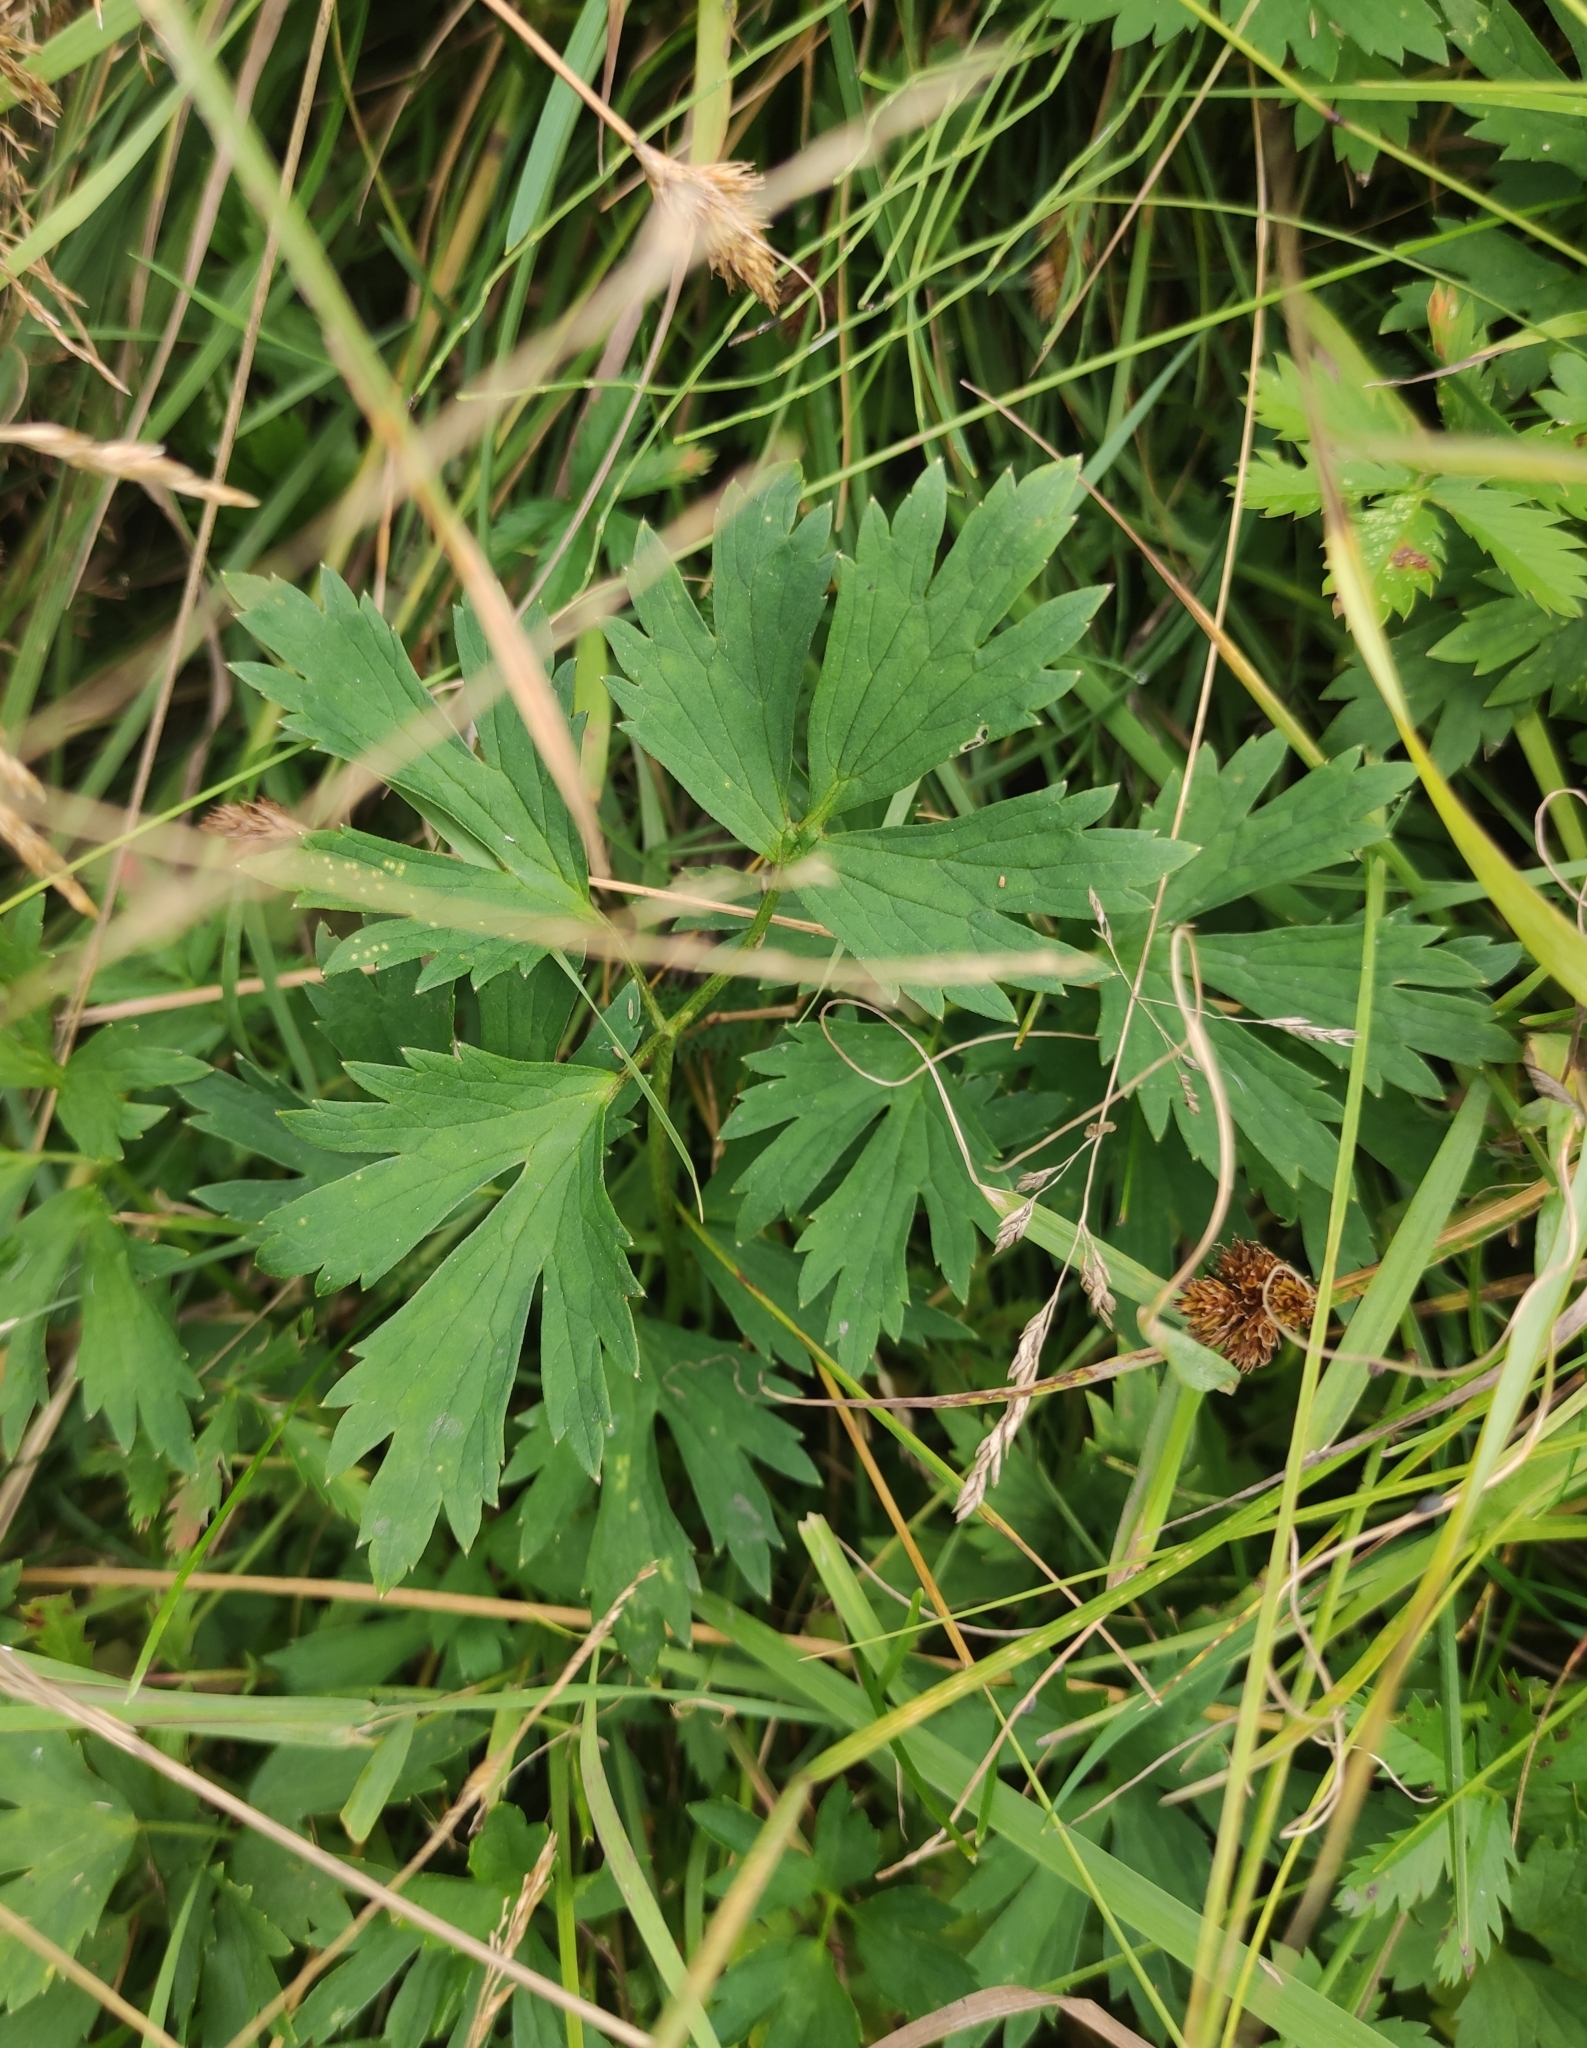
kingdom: Plantae
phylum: Tracheophyta
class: Magnoliopsida
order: Ranunculales
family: Ranunculaceae
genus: Ranunculus
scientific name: Ranunculus repens
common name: Creeping buttercup
